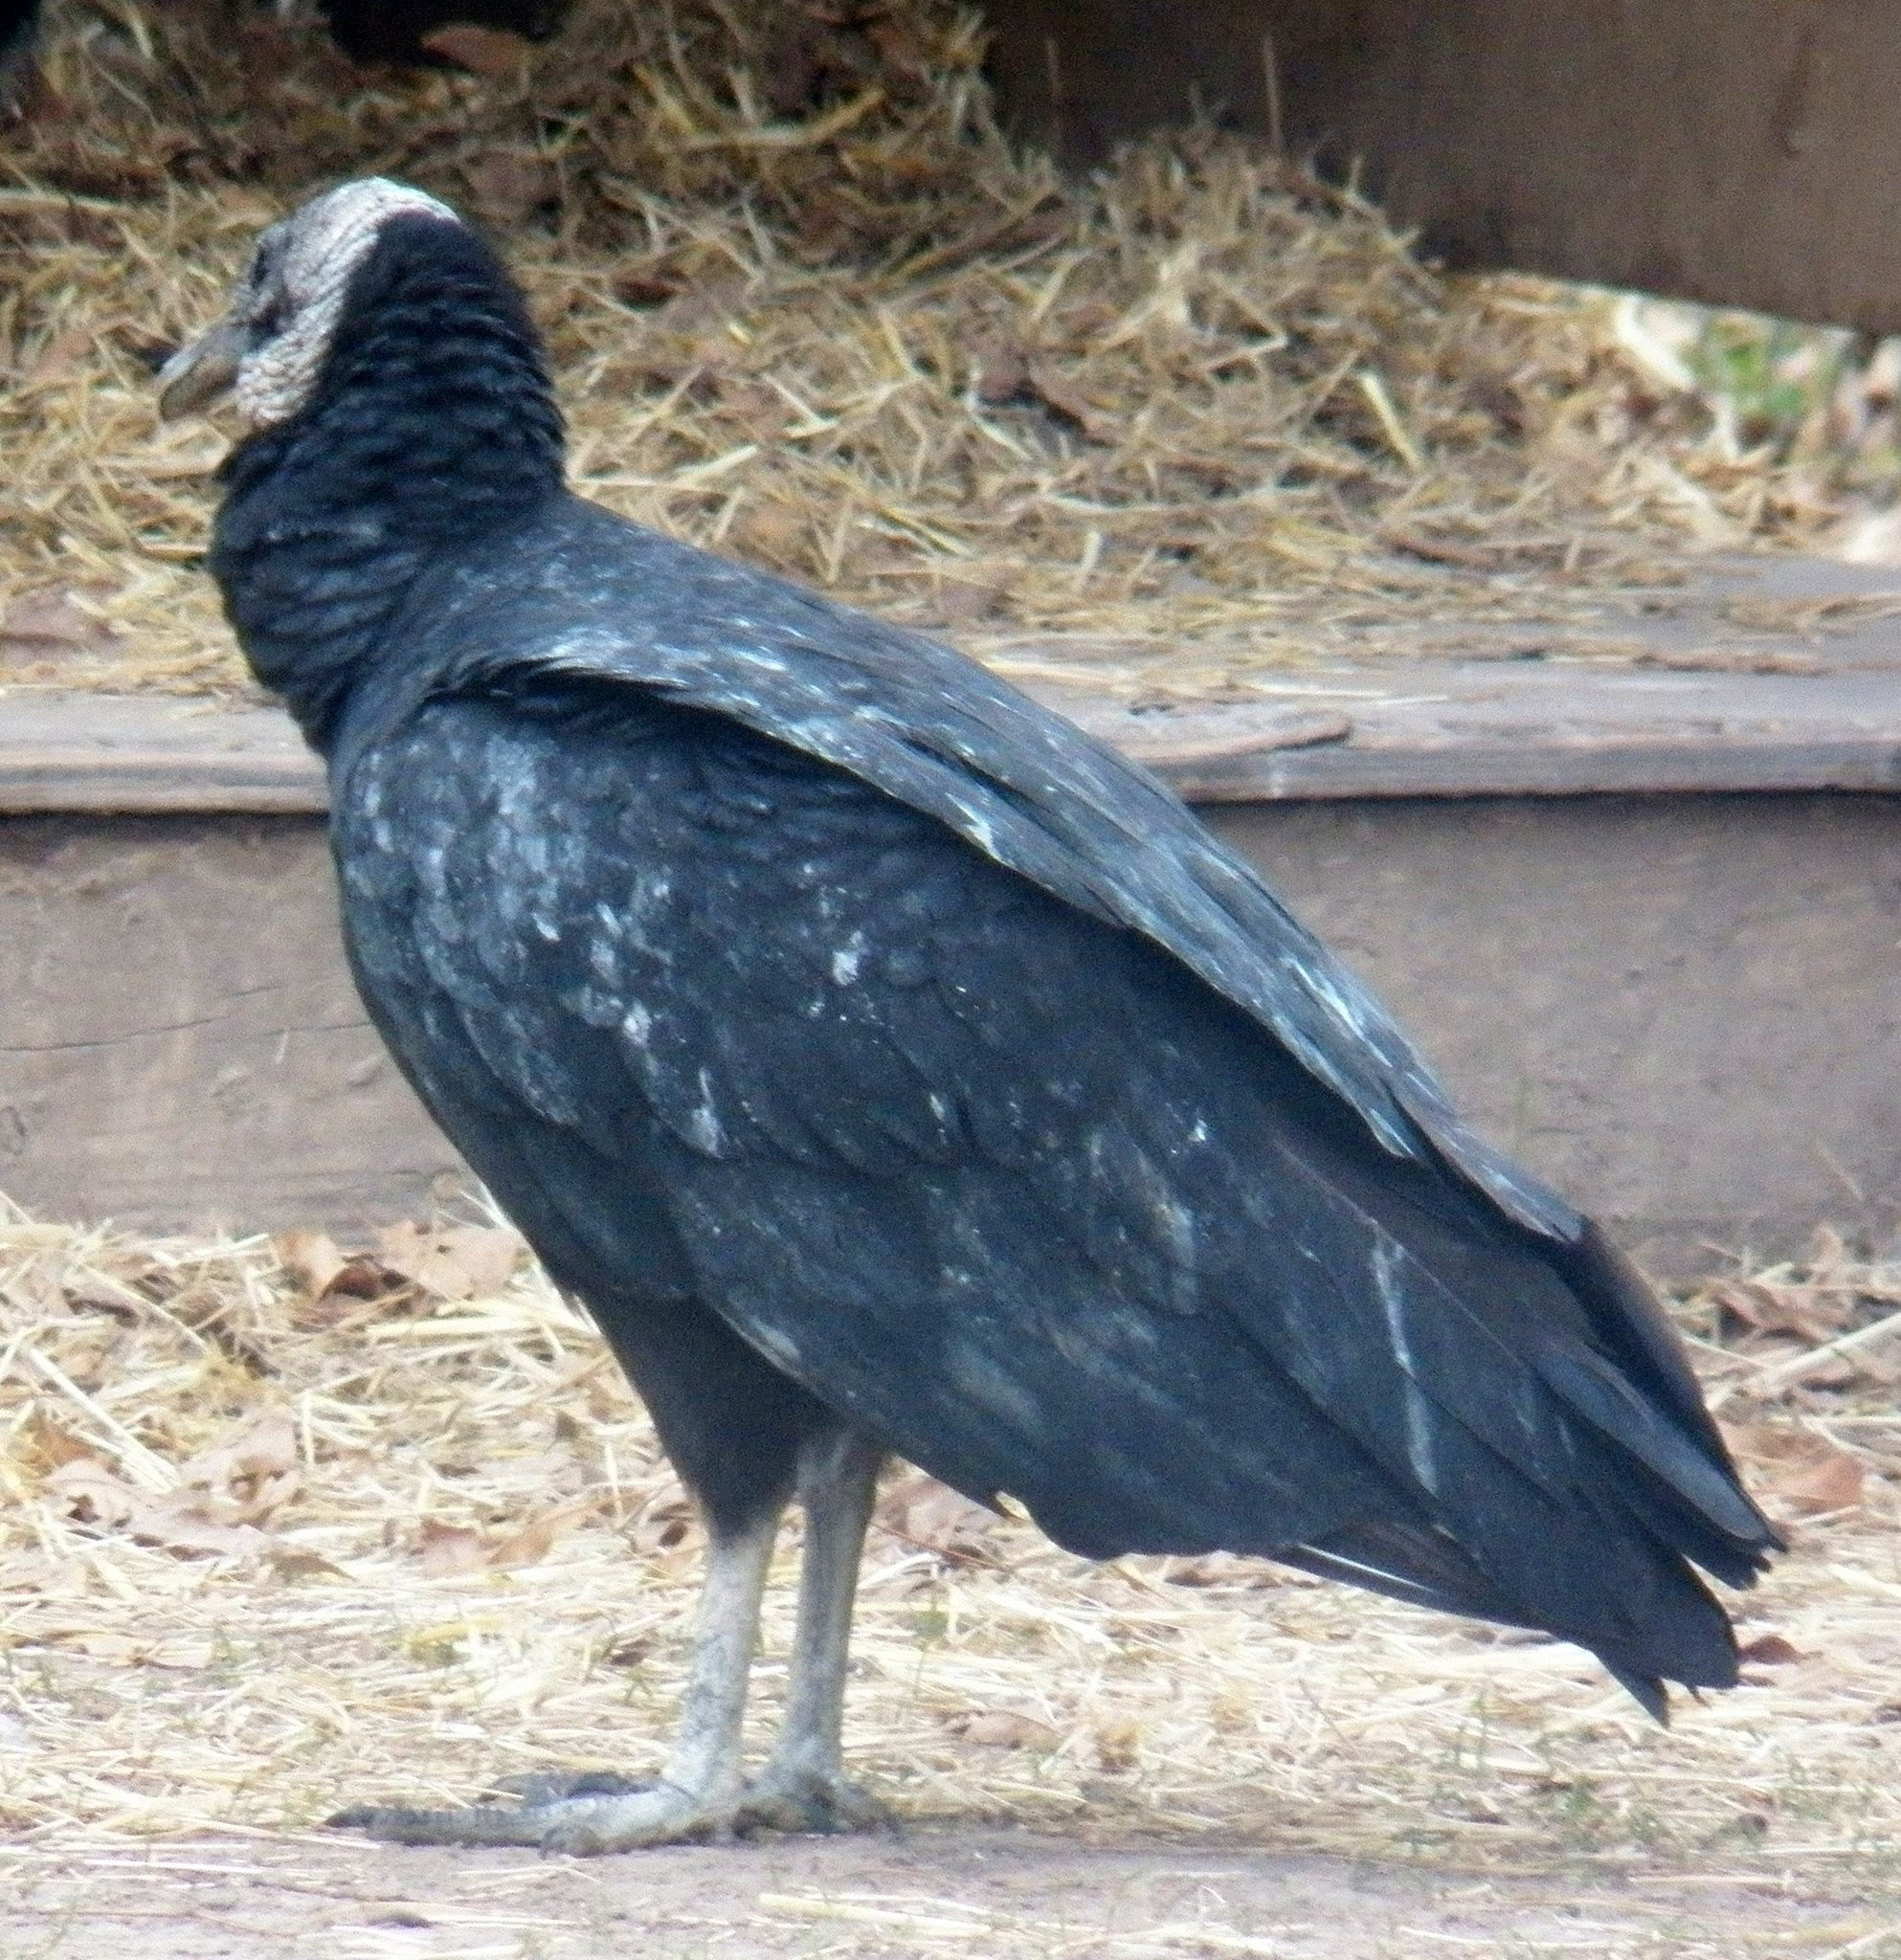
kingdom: Animalia
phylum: Chordata
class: Aves
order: Accipitriformes
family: Cathartidae
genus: Coragyps
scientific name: Coragyps atratus
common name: Black vulture
